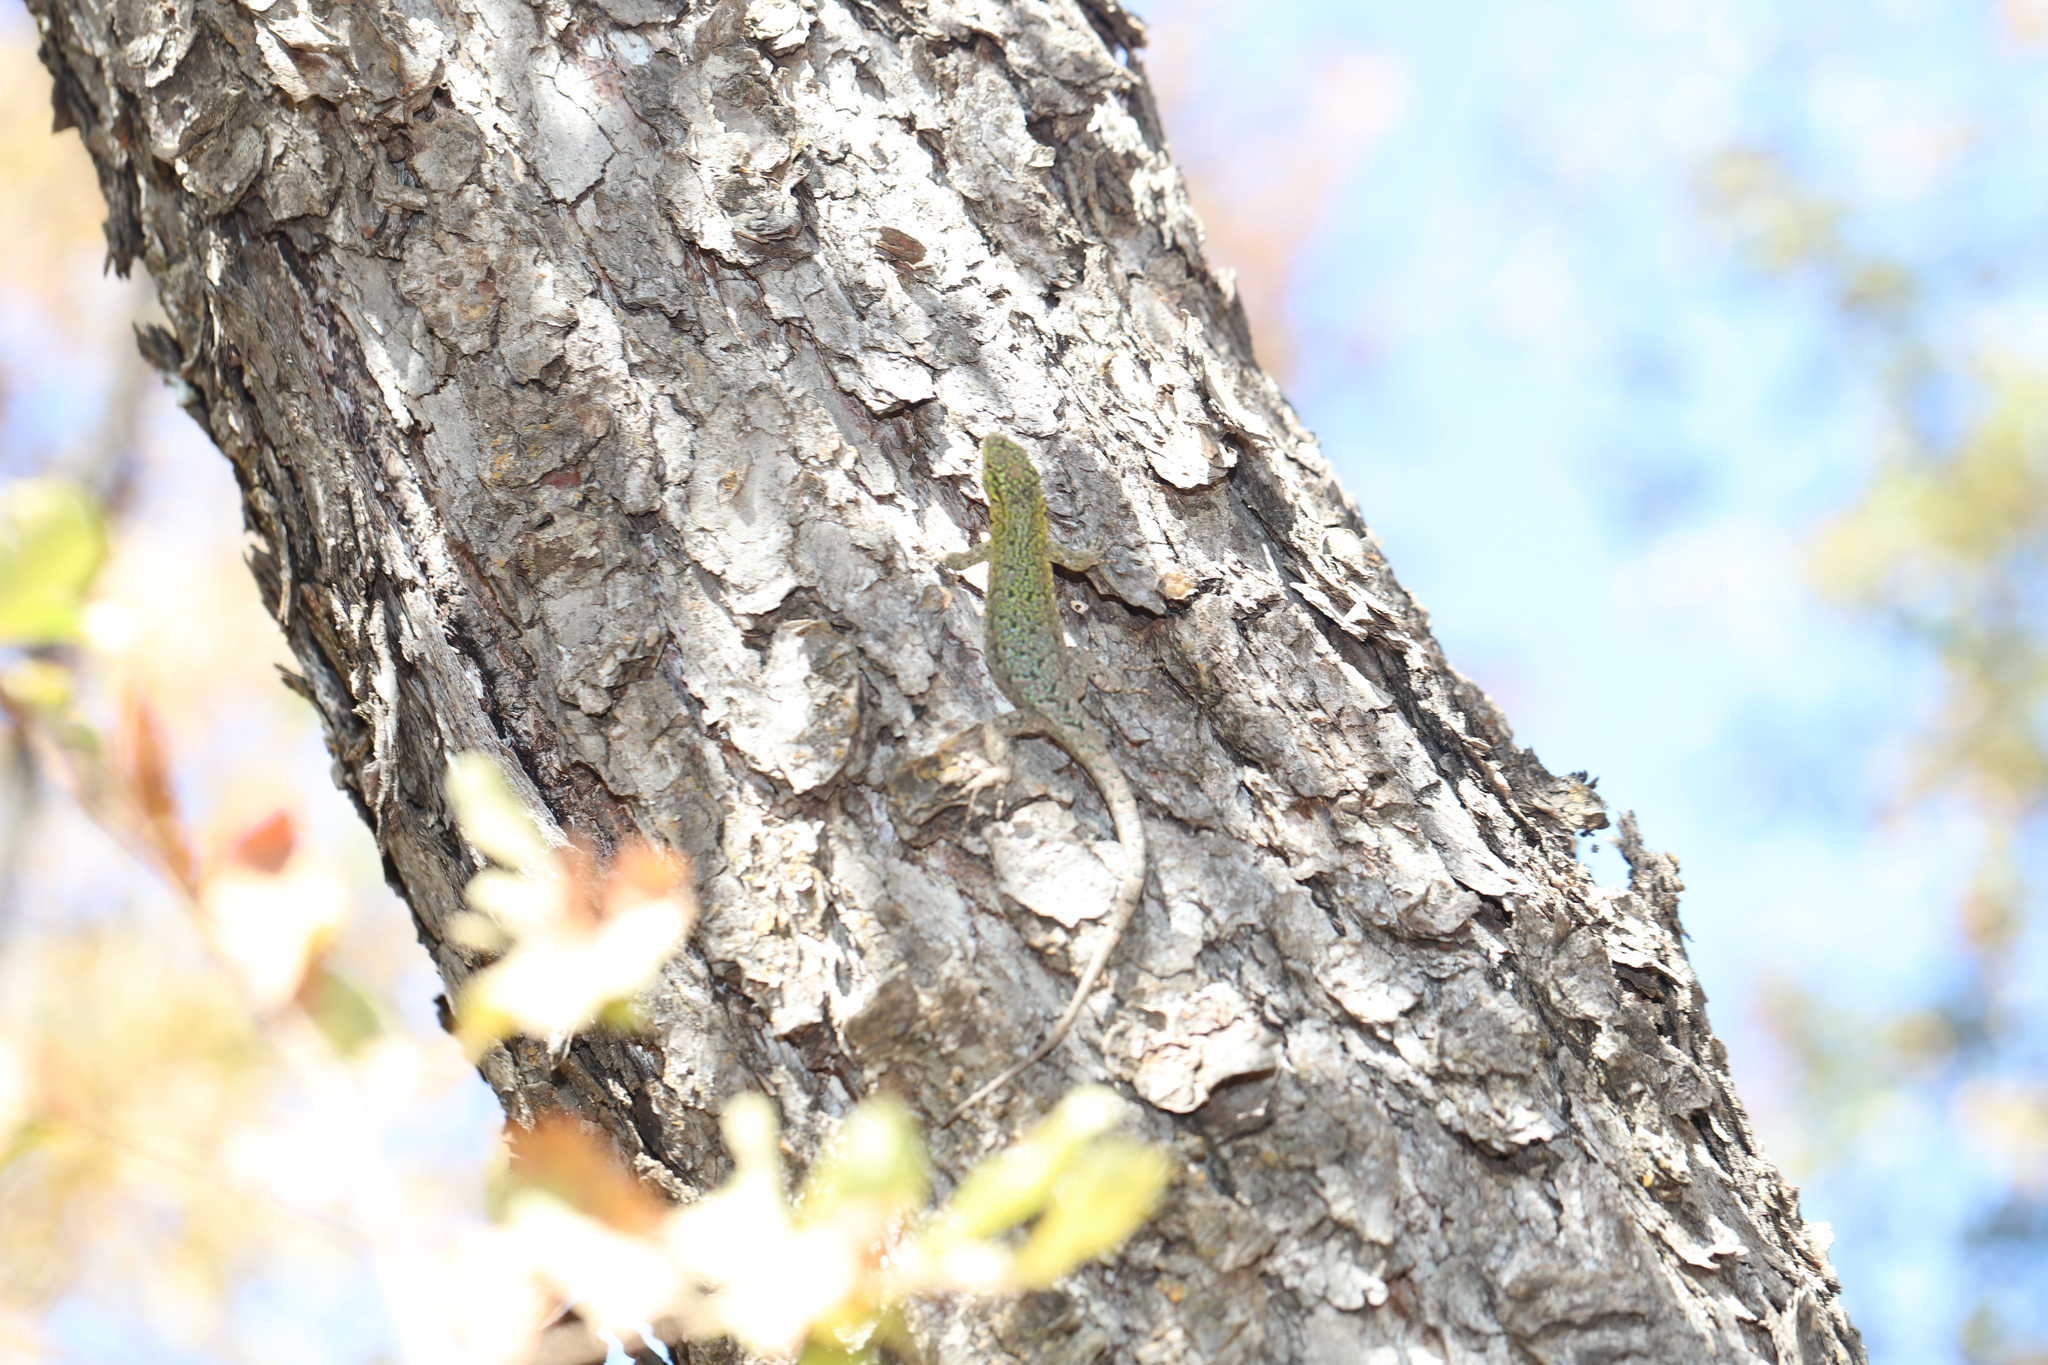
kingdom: Animalia
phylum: Chordata
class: Squamata
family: Liolaemidae
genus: Liolaemus
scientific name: Liolaemus tenuis
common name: Thin tree iguana
